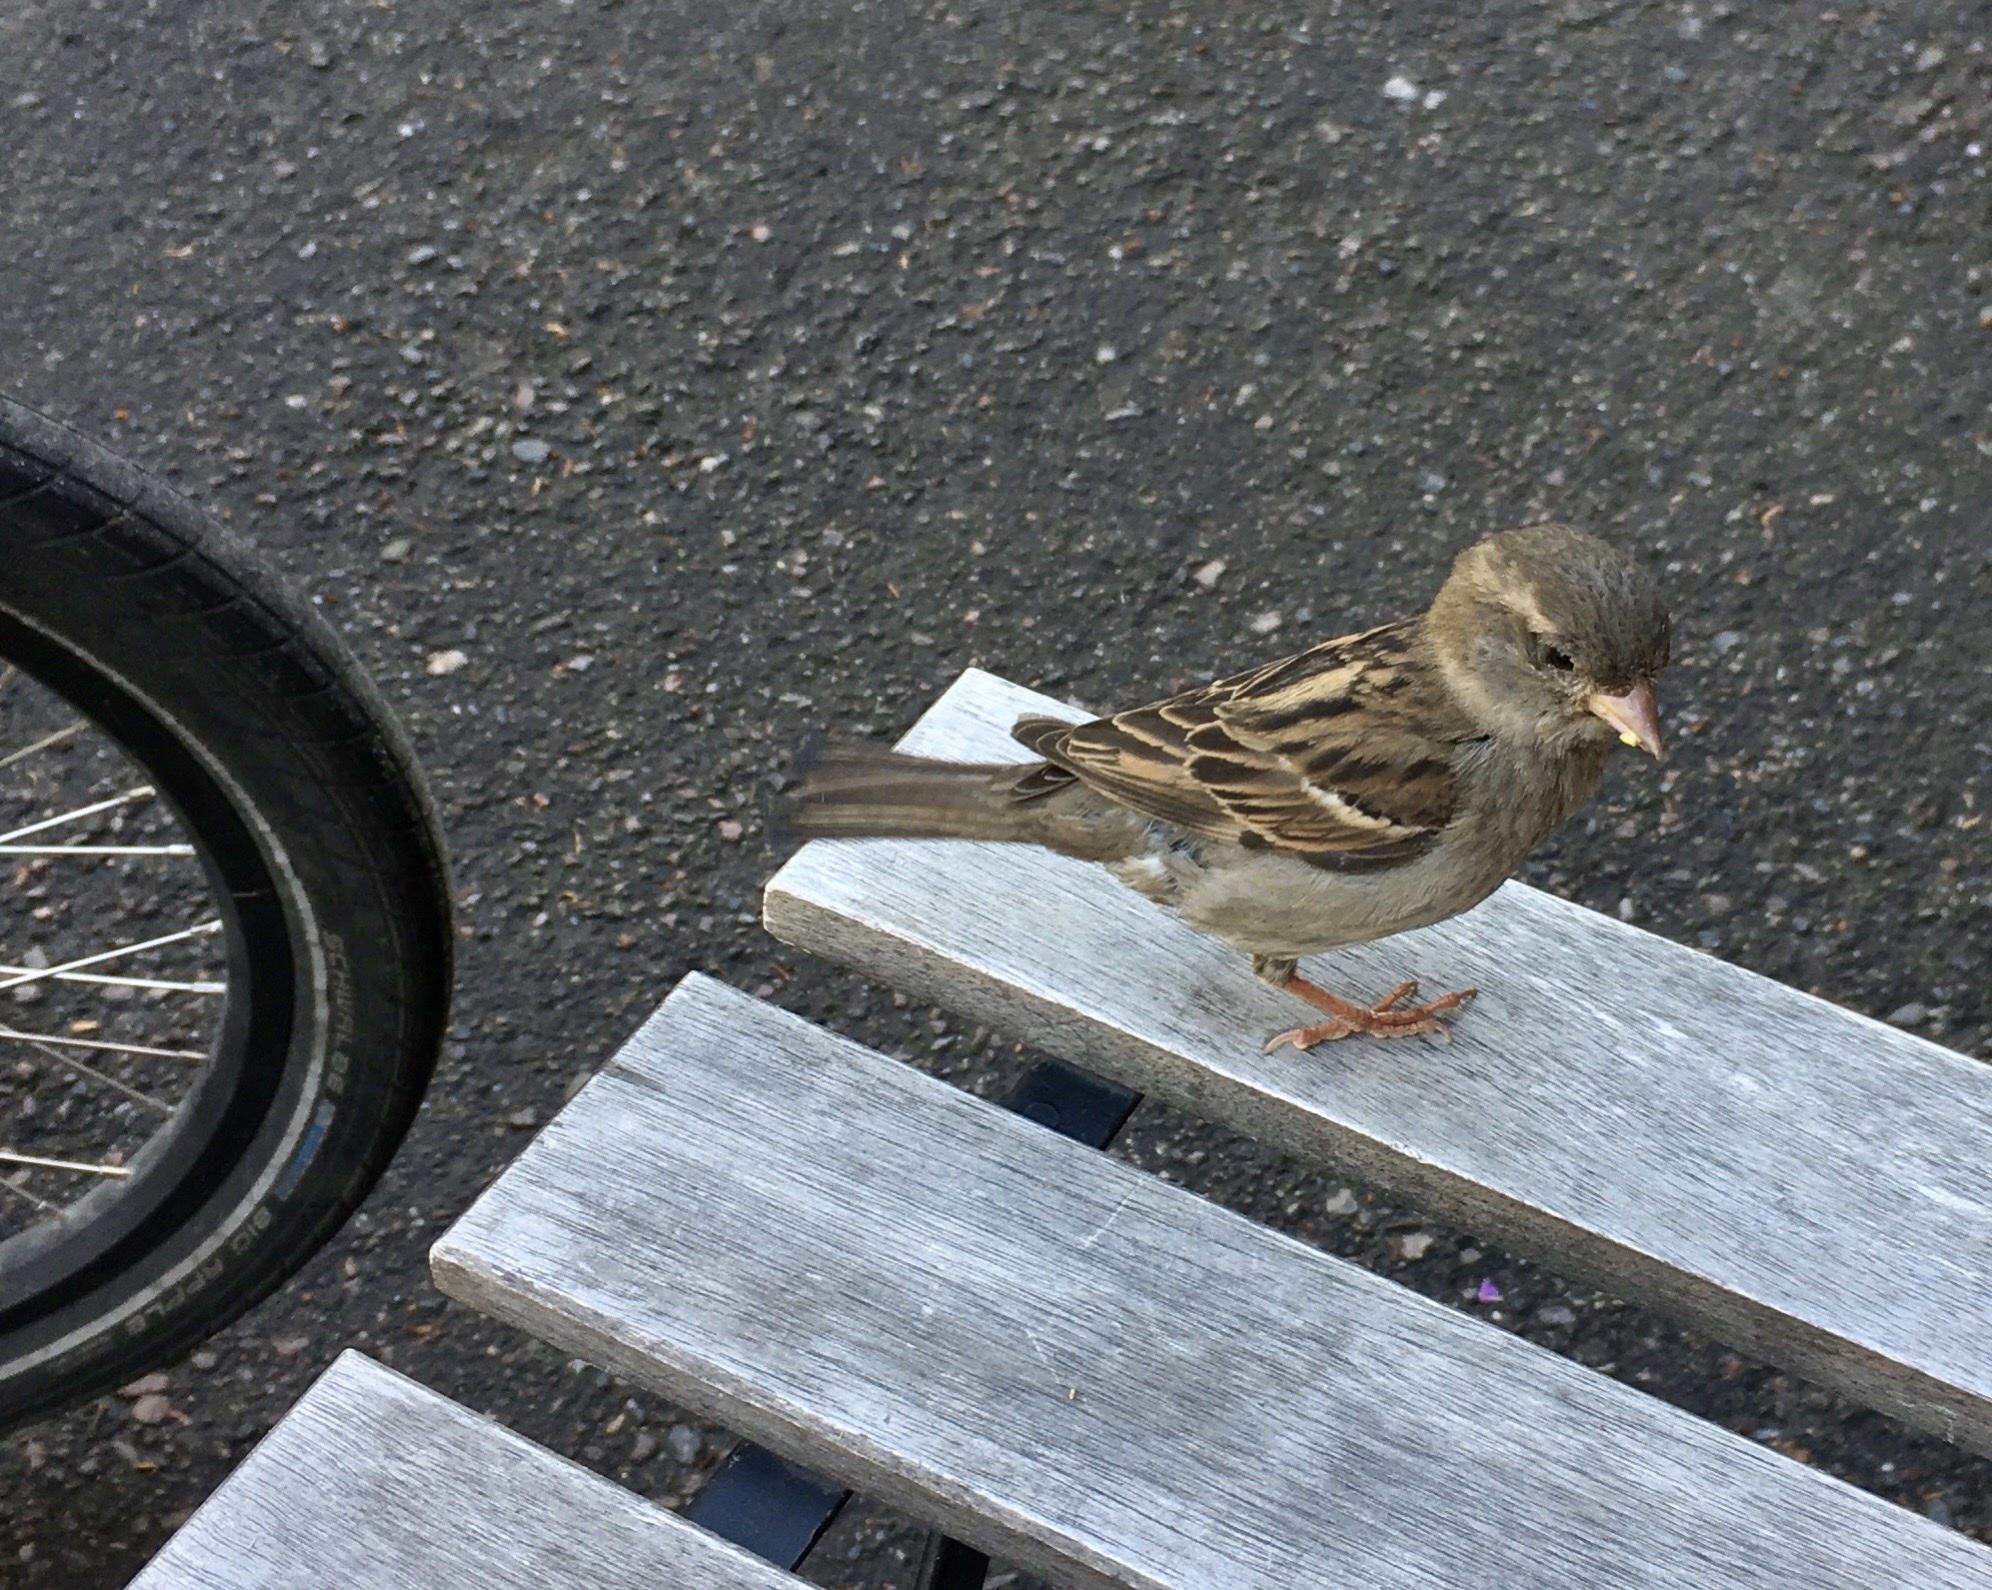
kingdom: Animalia
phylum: Chordata
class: Aves
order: Passeriformes
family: Passeridae
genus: Passer
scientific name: Passer domesticus
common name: House sparrow
